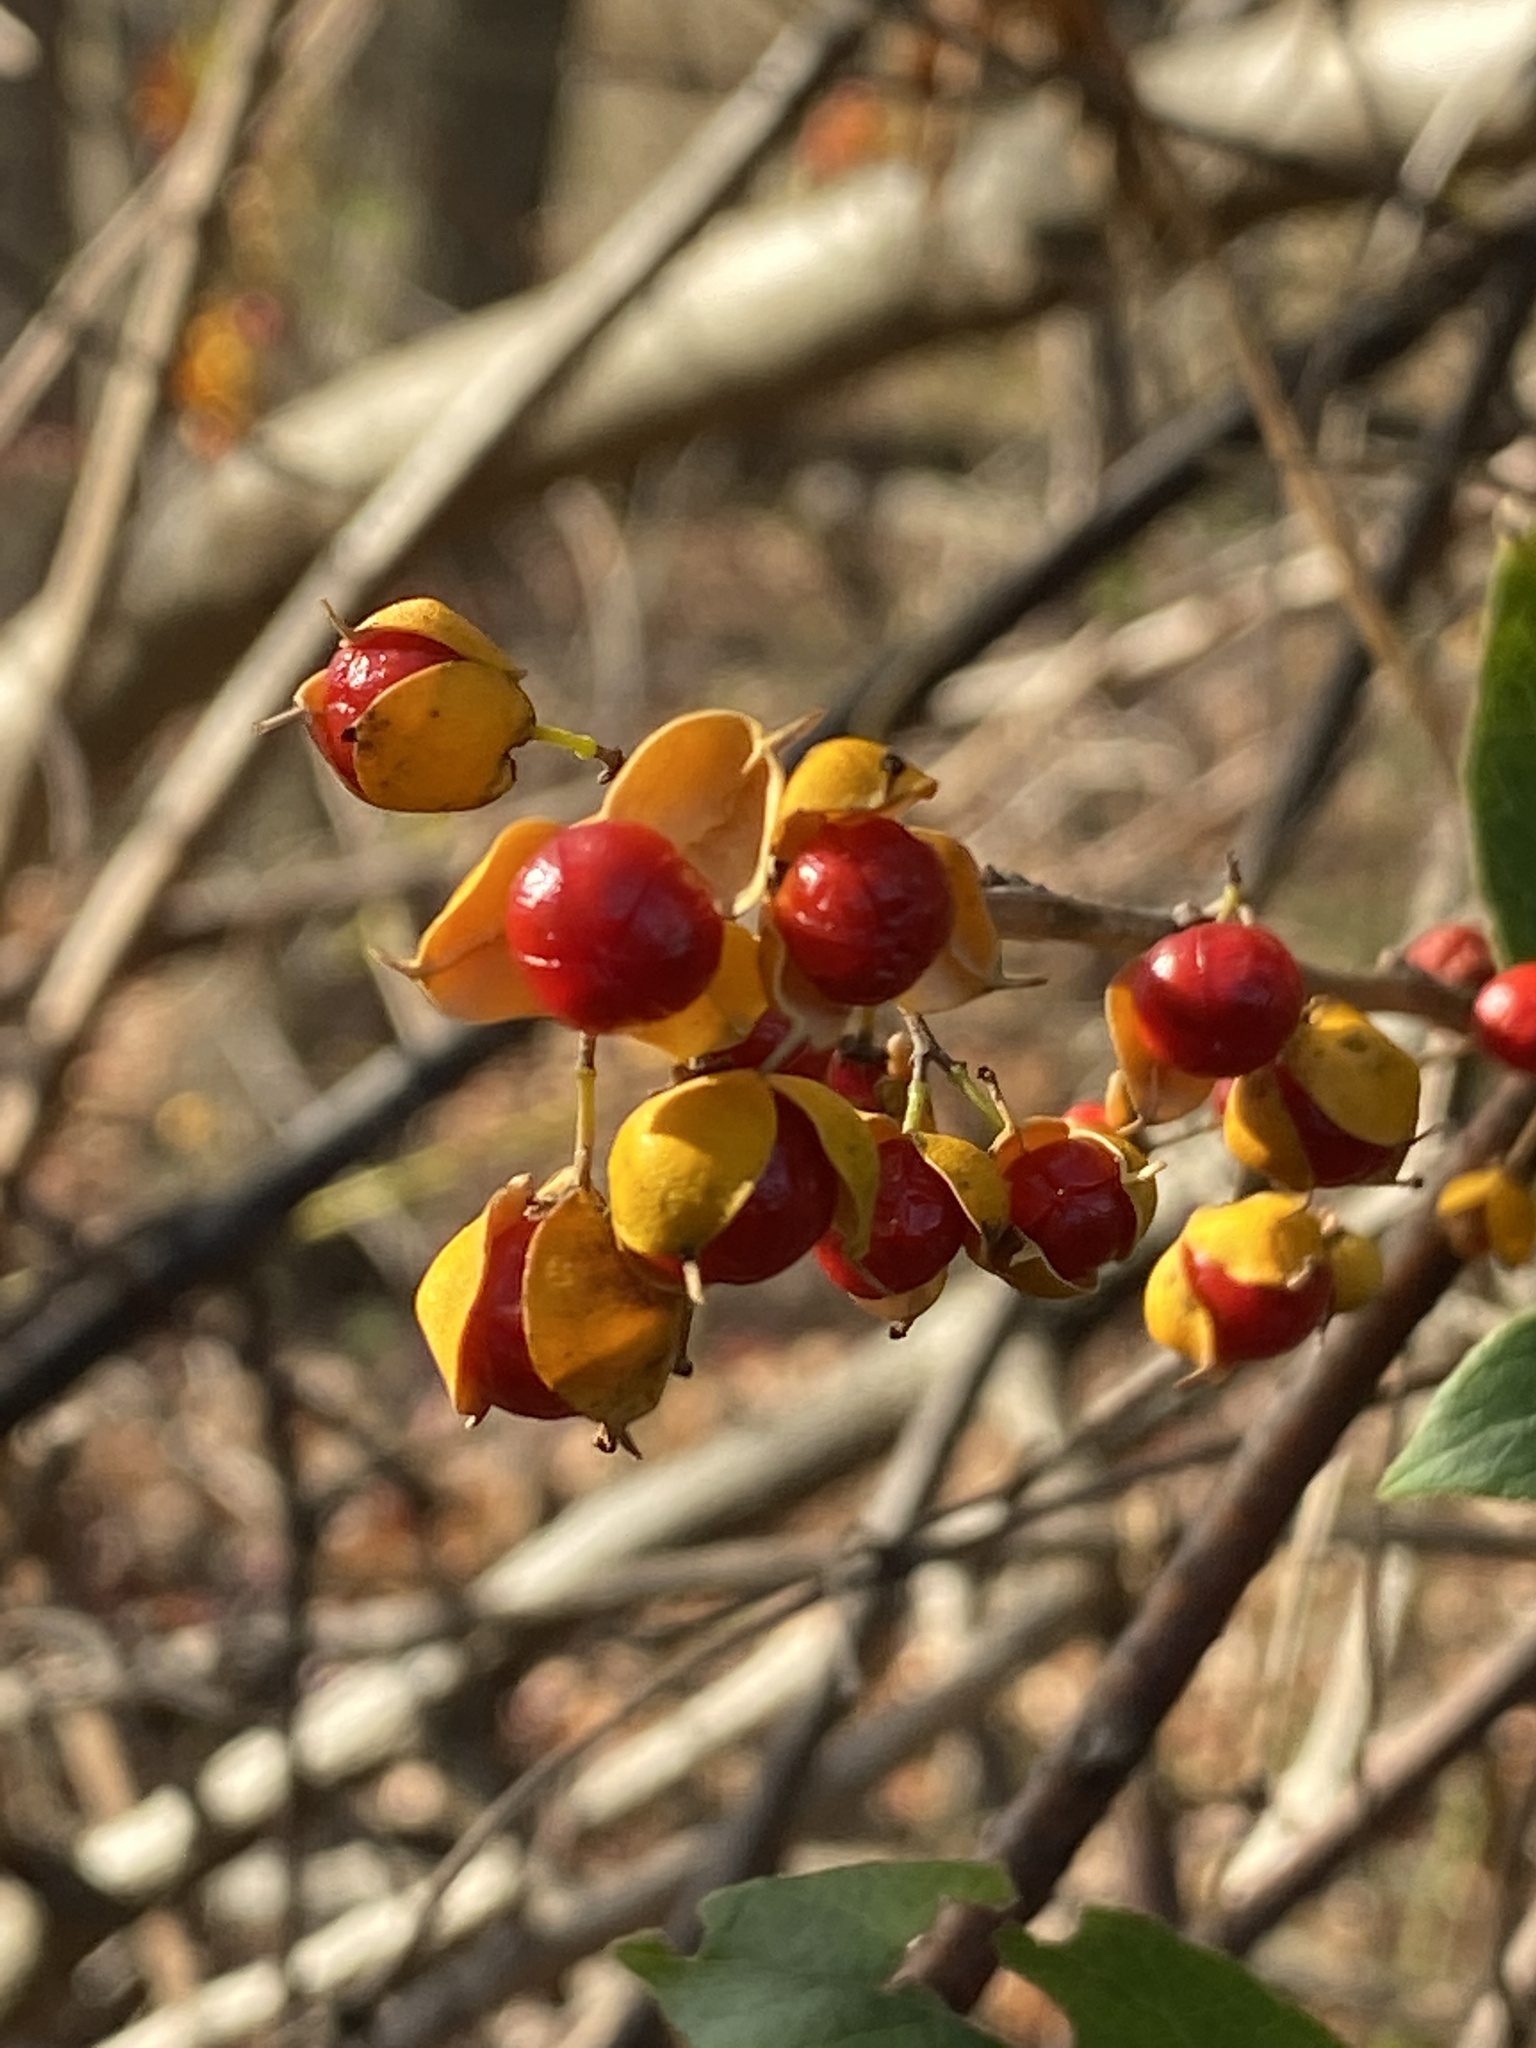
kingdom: Plantae
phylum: Tracheophyta
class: Magnoliopsida
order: Celastrales
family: Celastraceae
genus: Celastrus
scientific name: Celastrus orbiculatus
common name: Oriental bittersweet
